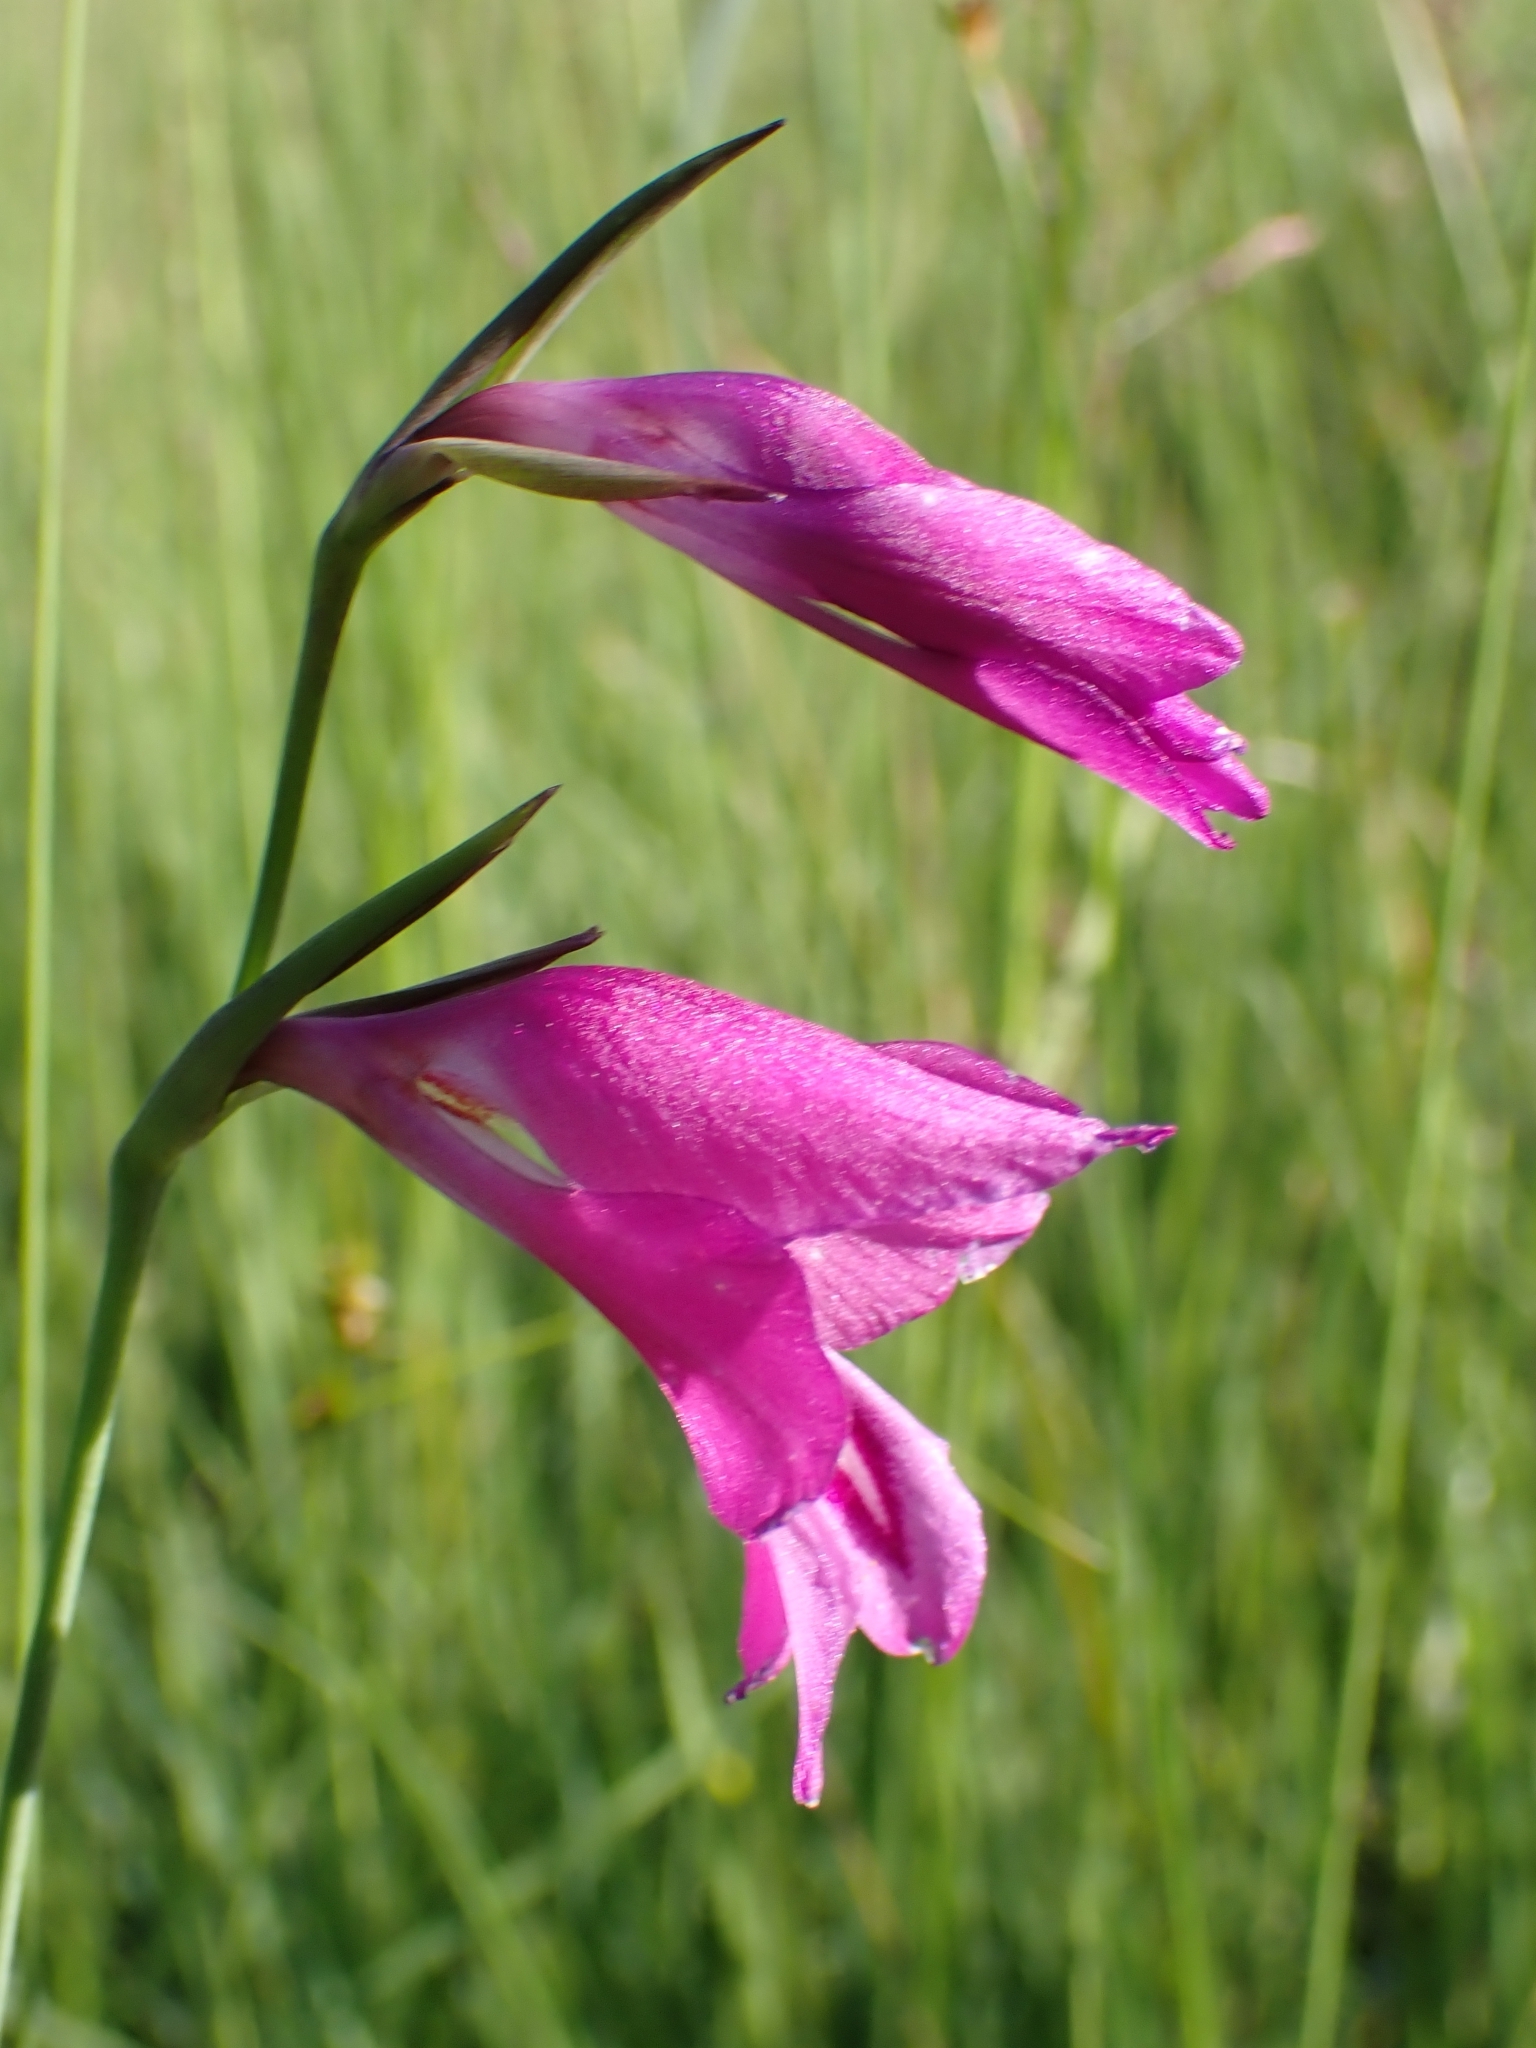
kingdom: Plantae
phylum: Tracheophyta
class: Liliopsida
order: Asparagales
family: Iridaceae
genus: Gladiolus
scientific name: Gladiolus palustris
